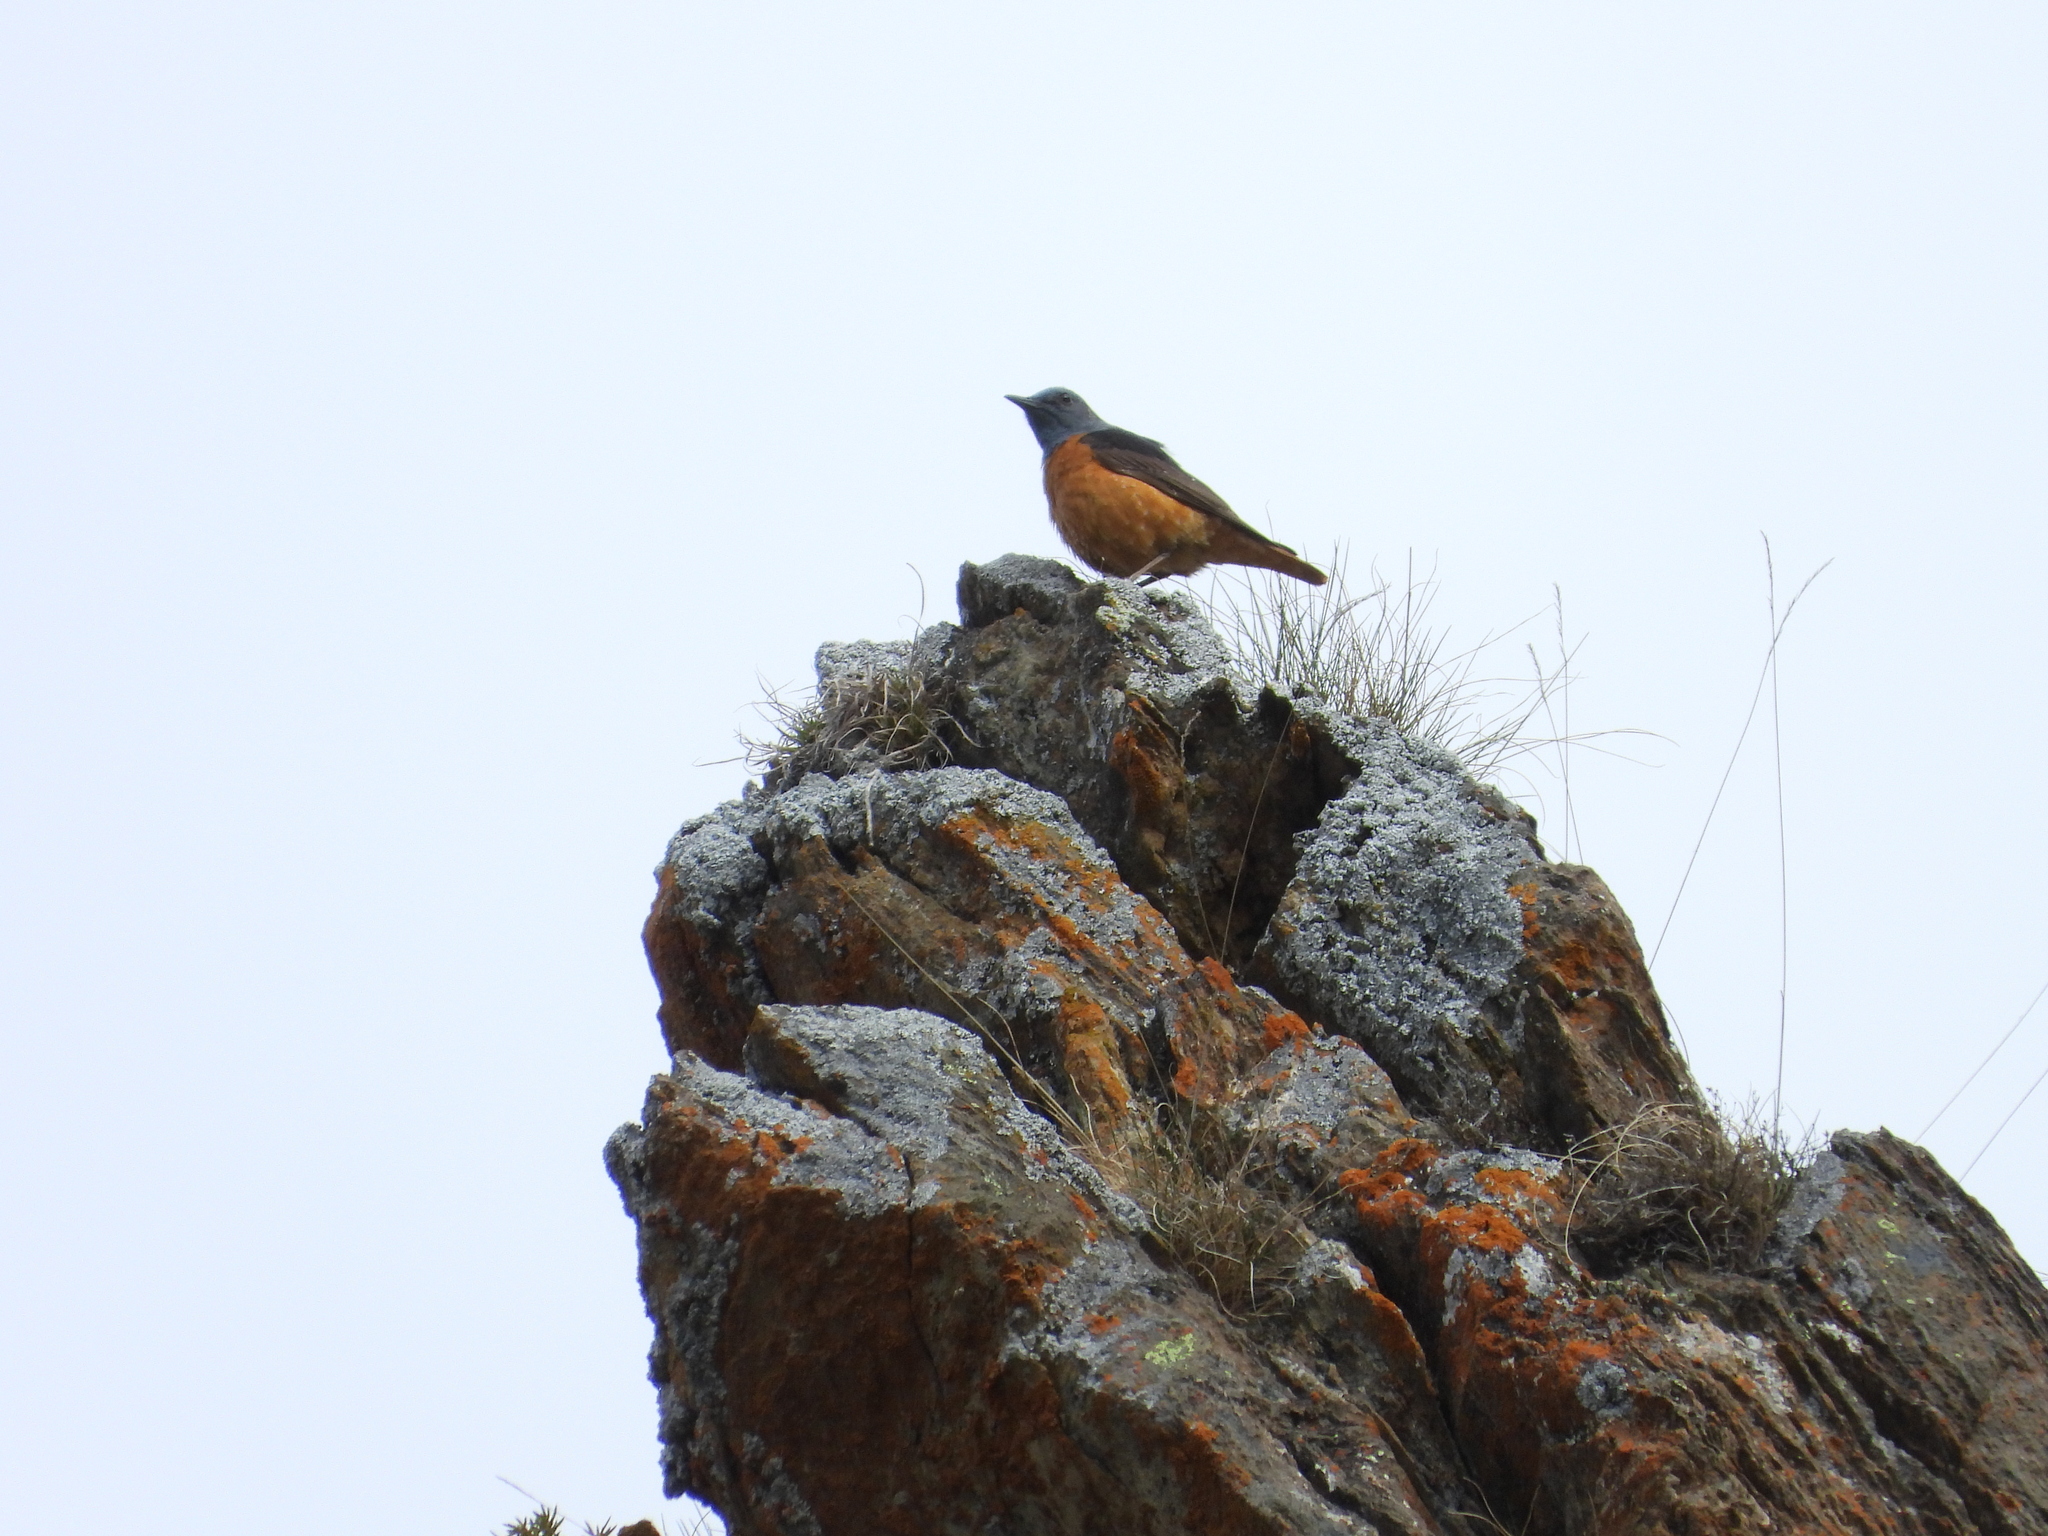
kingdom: Animalia
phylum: Chordata
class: Aves
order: Passeriformes
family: Muscicapidae
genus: Monticola
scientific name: Monticola saxatilis
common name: Rufous-tailed rock thrush
